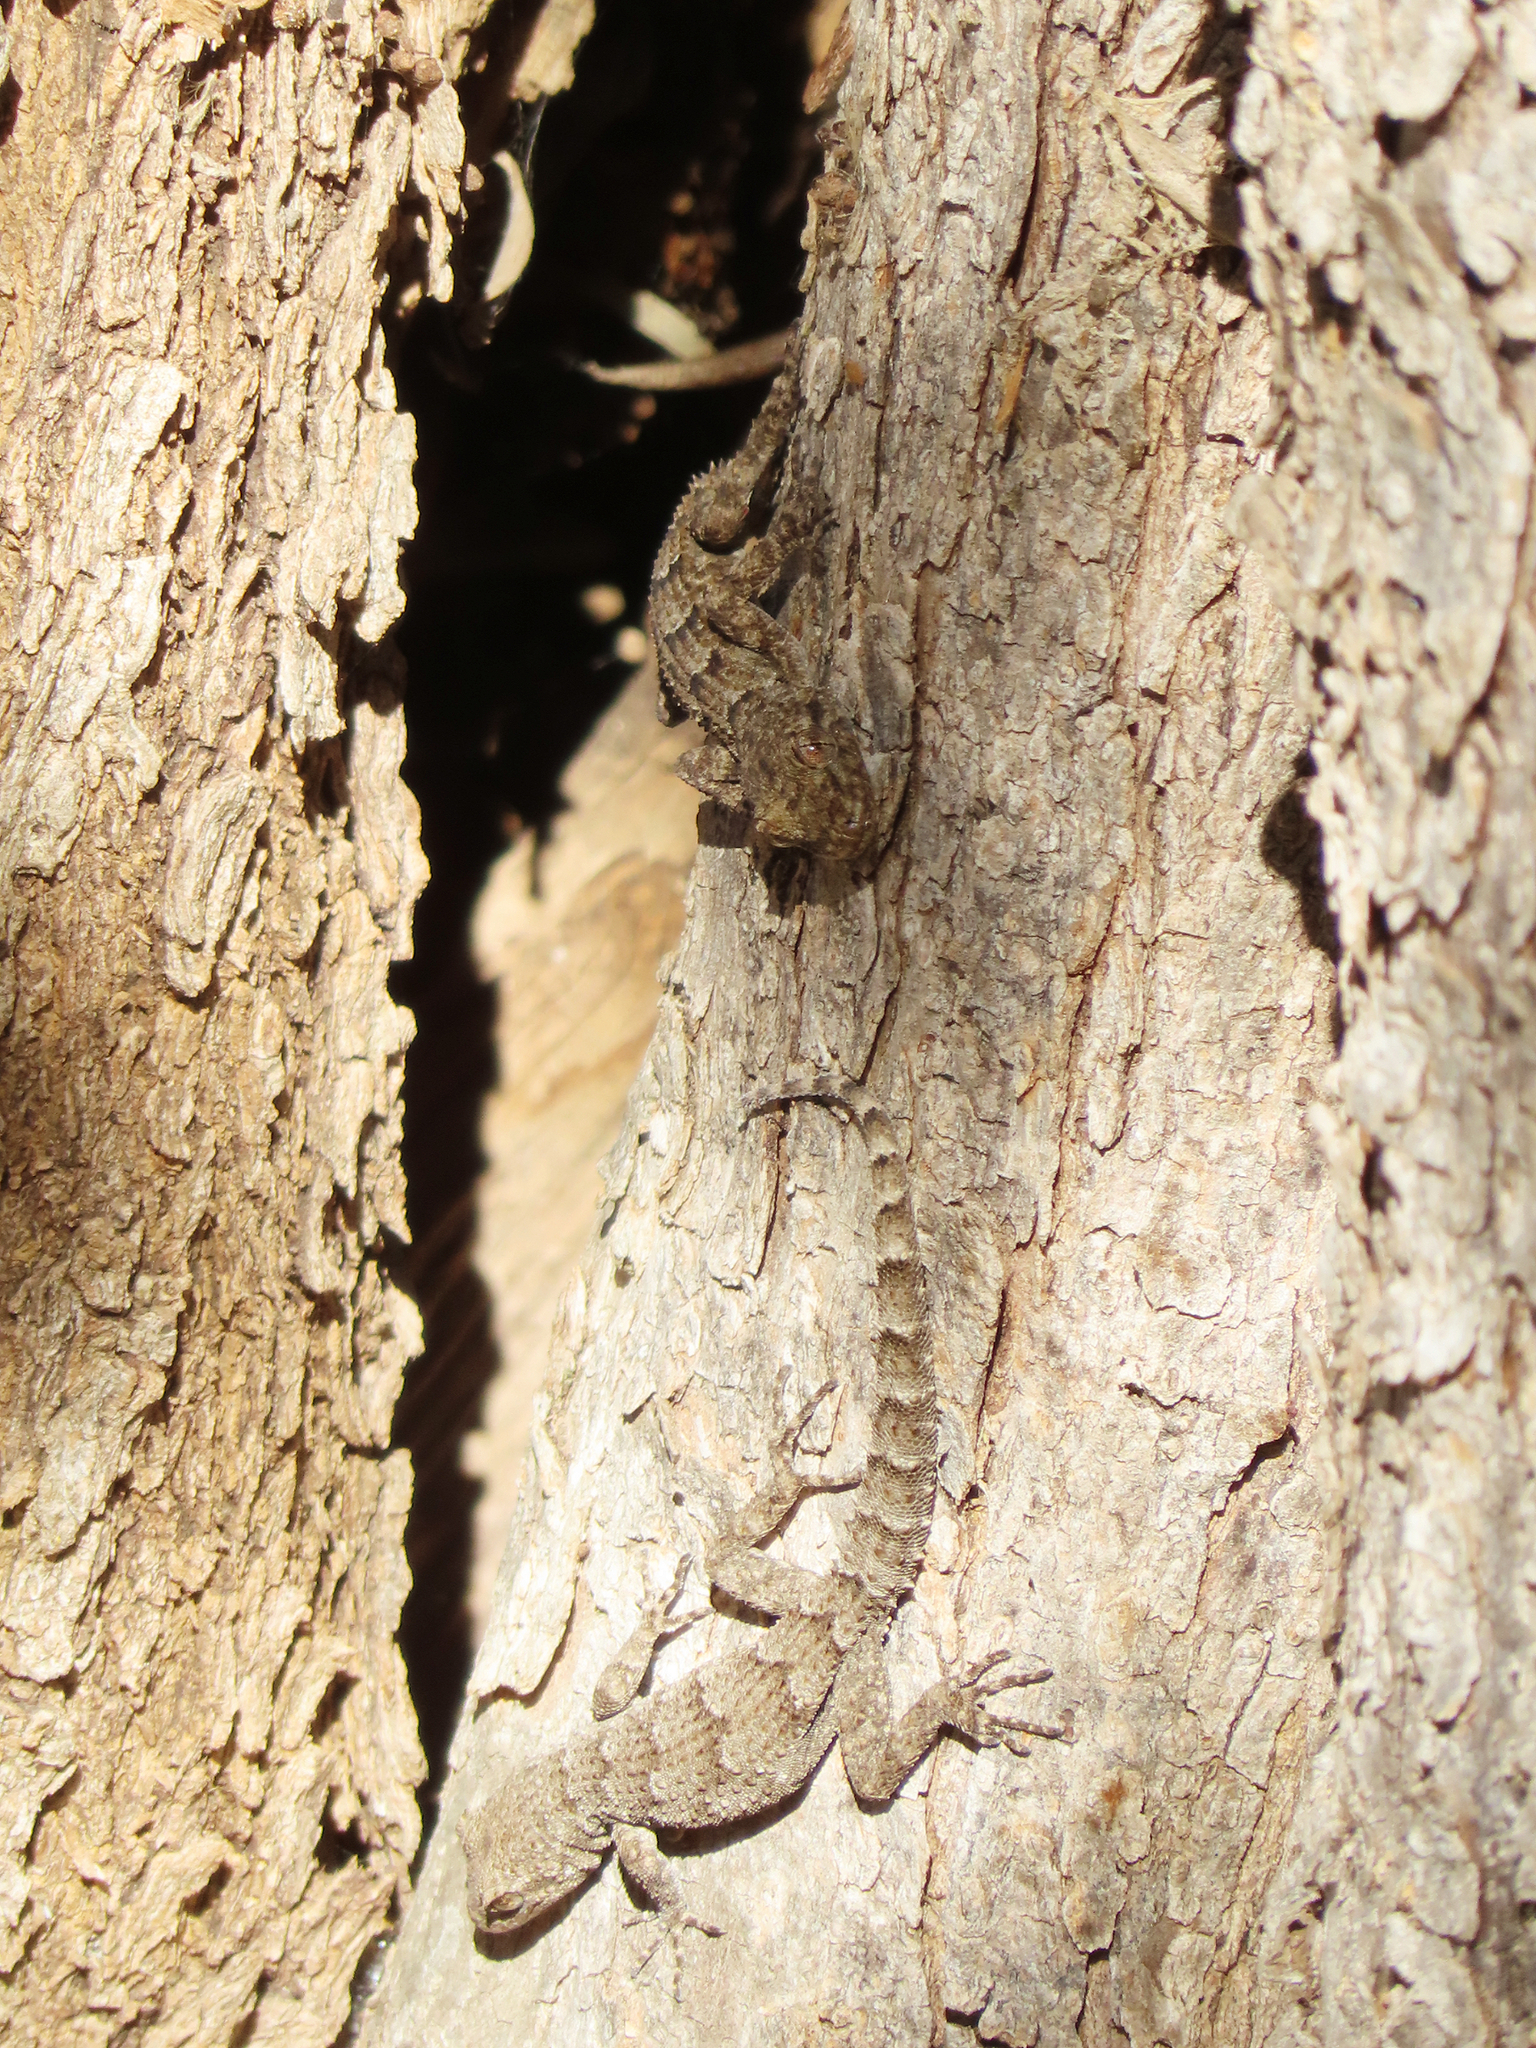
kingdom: Animalia
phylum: Chordata
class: Squamata
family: Gekkonidae
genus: Mediodactylus
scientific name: Mediodactylus kotschyi
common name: Kotschy's gecko
